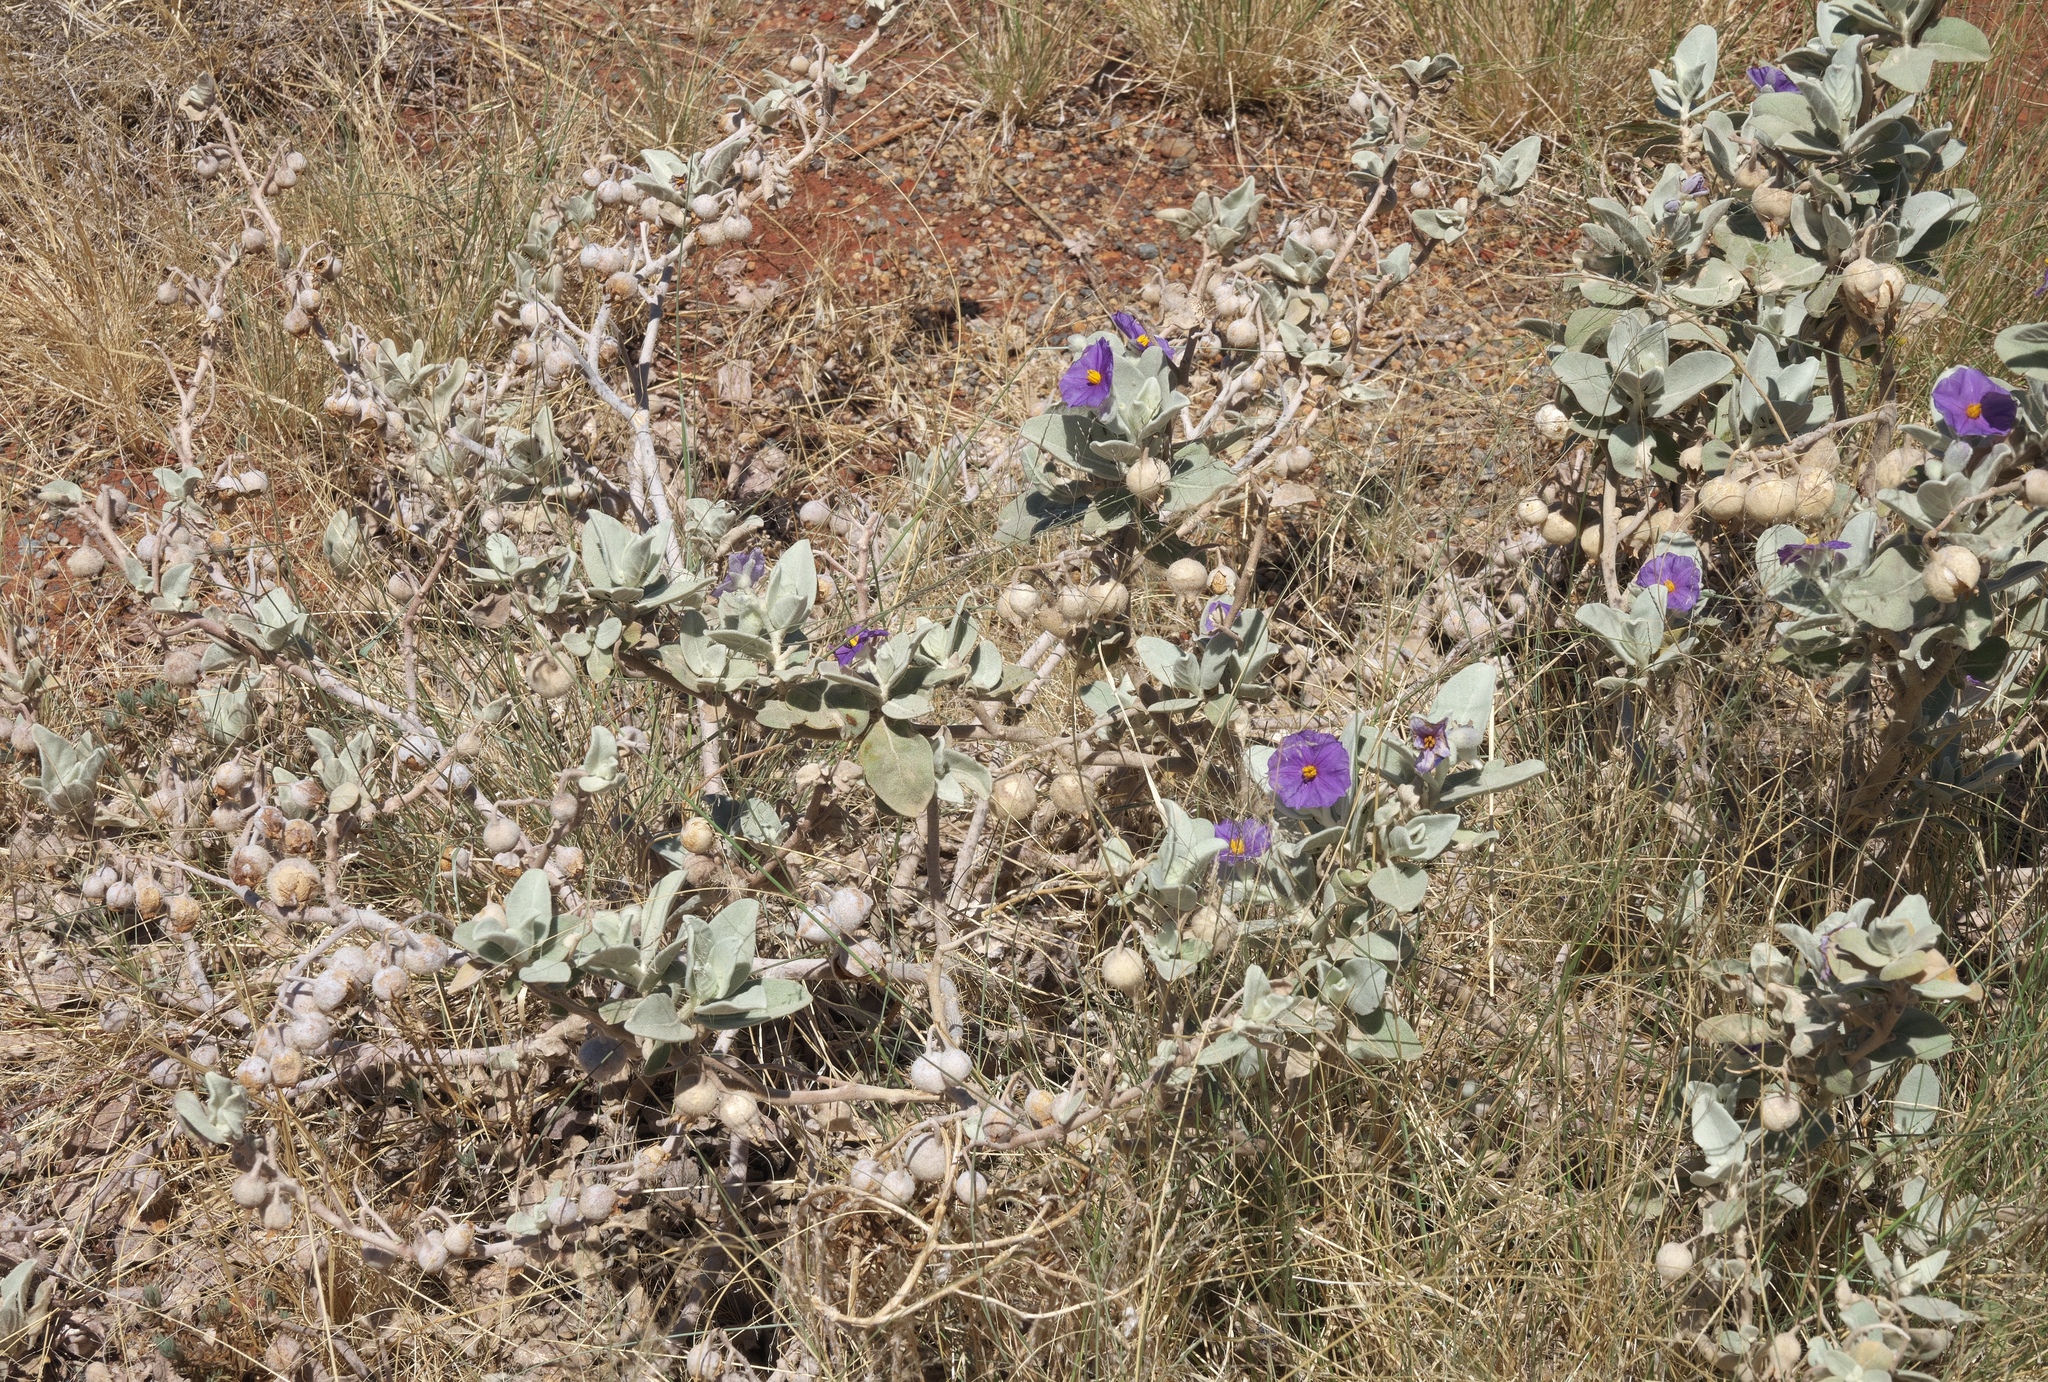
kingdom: Plantae
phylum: Tracheophyta
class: Magnoliopsida
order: Solanales
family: Solanaceae
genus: Solanum
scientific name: Solanum lasiophyllum
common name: Flannelbush
